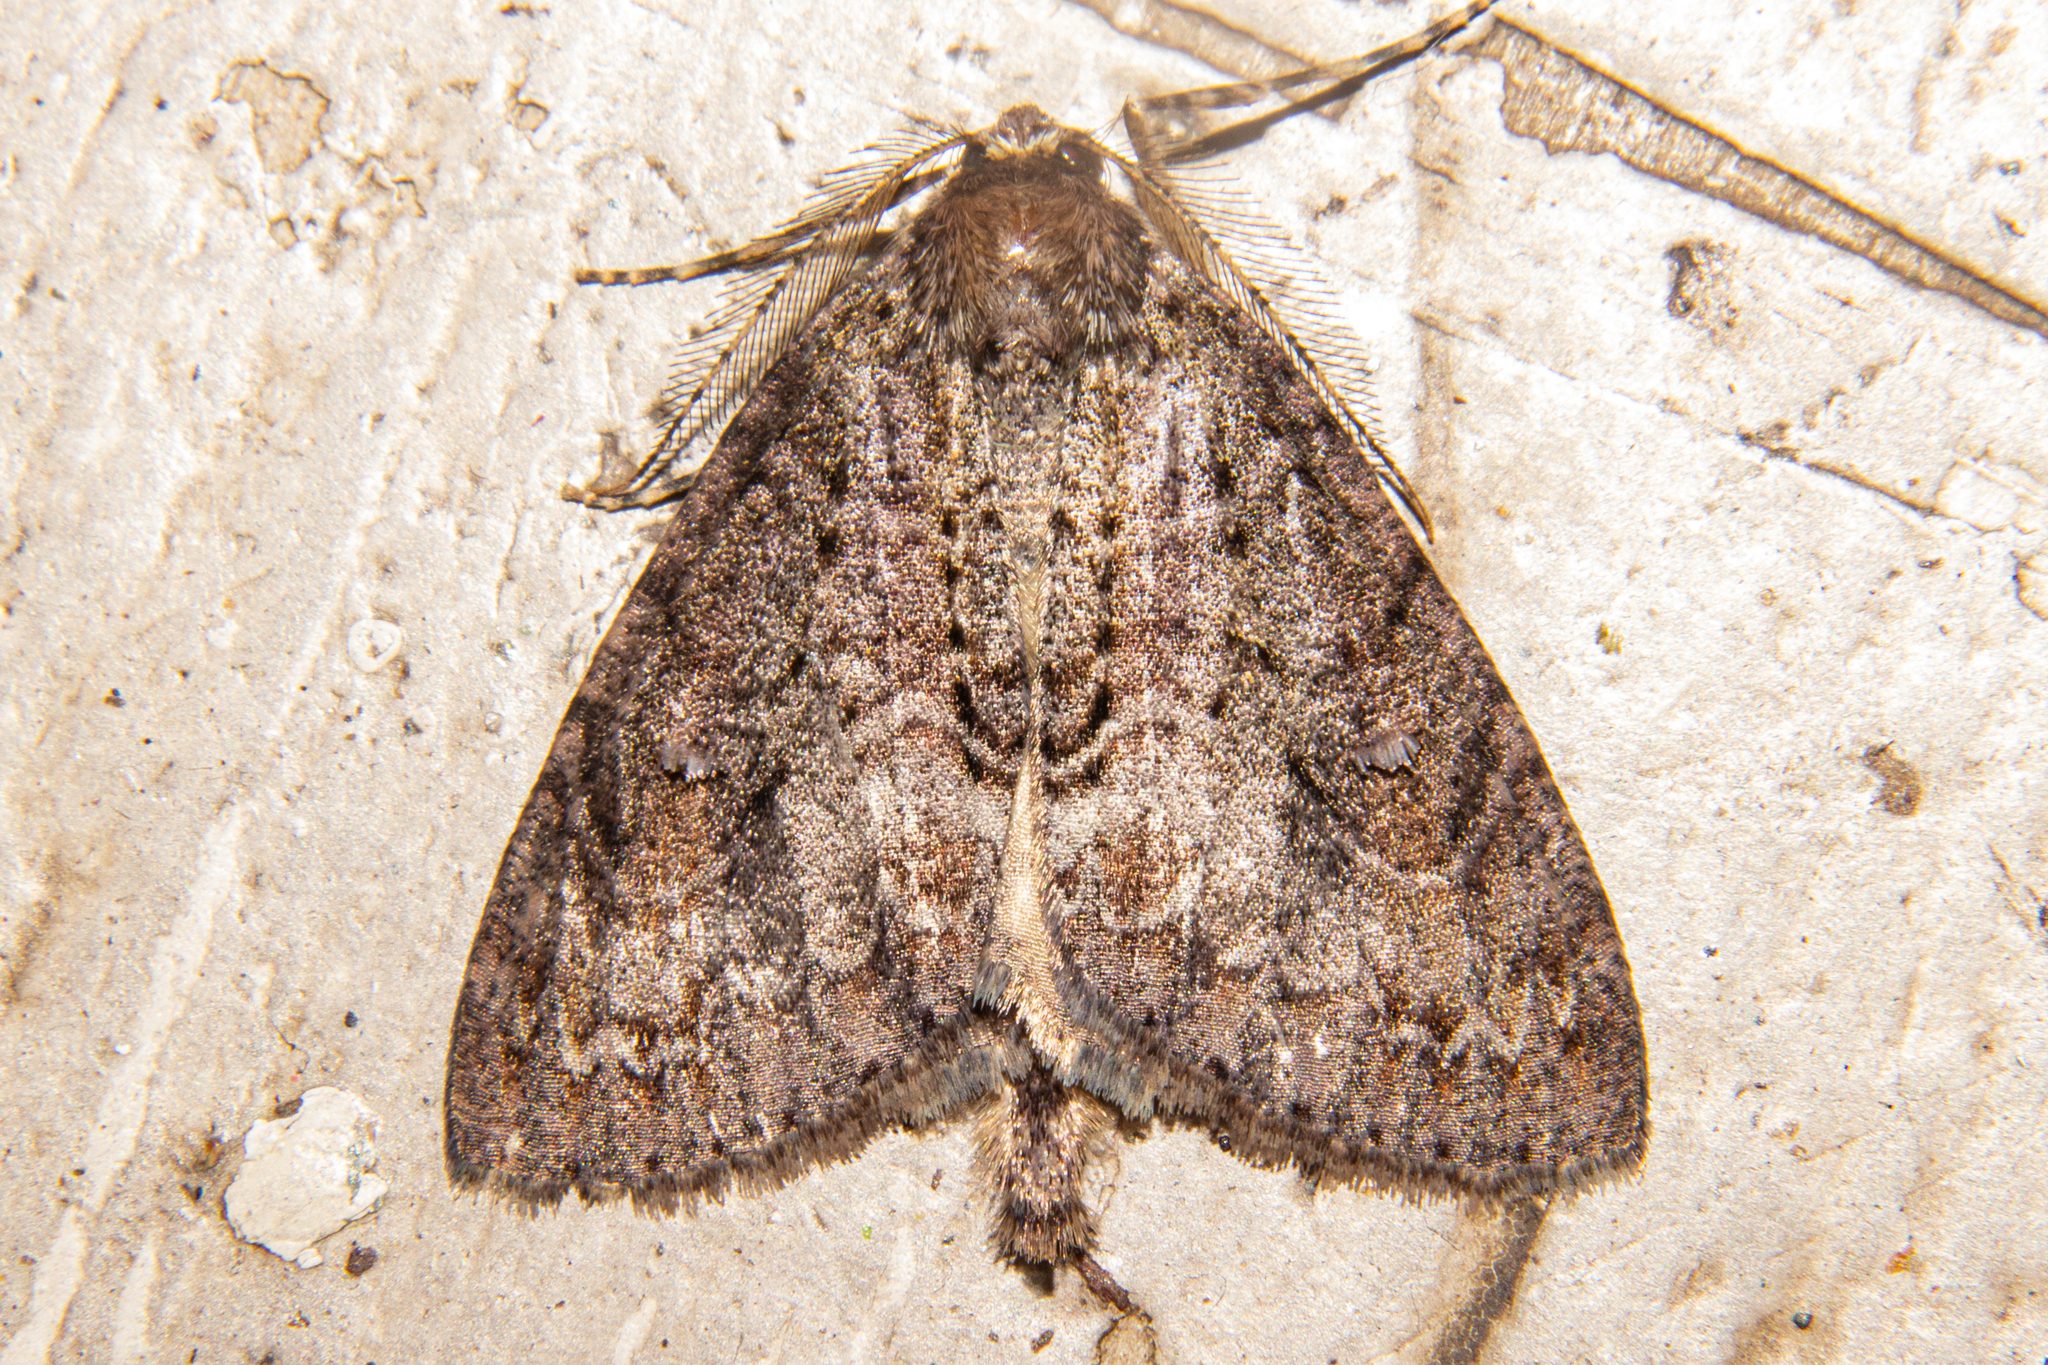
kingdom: Animalia
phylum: Arthropoda
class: Insecta
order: Lepidoptera
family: Geometridae
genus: Pseudocoremia
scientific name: Pseudocoremia suavis
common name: Common forest looper
